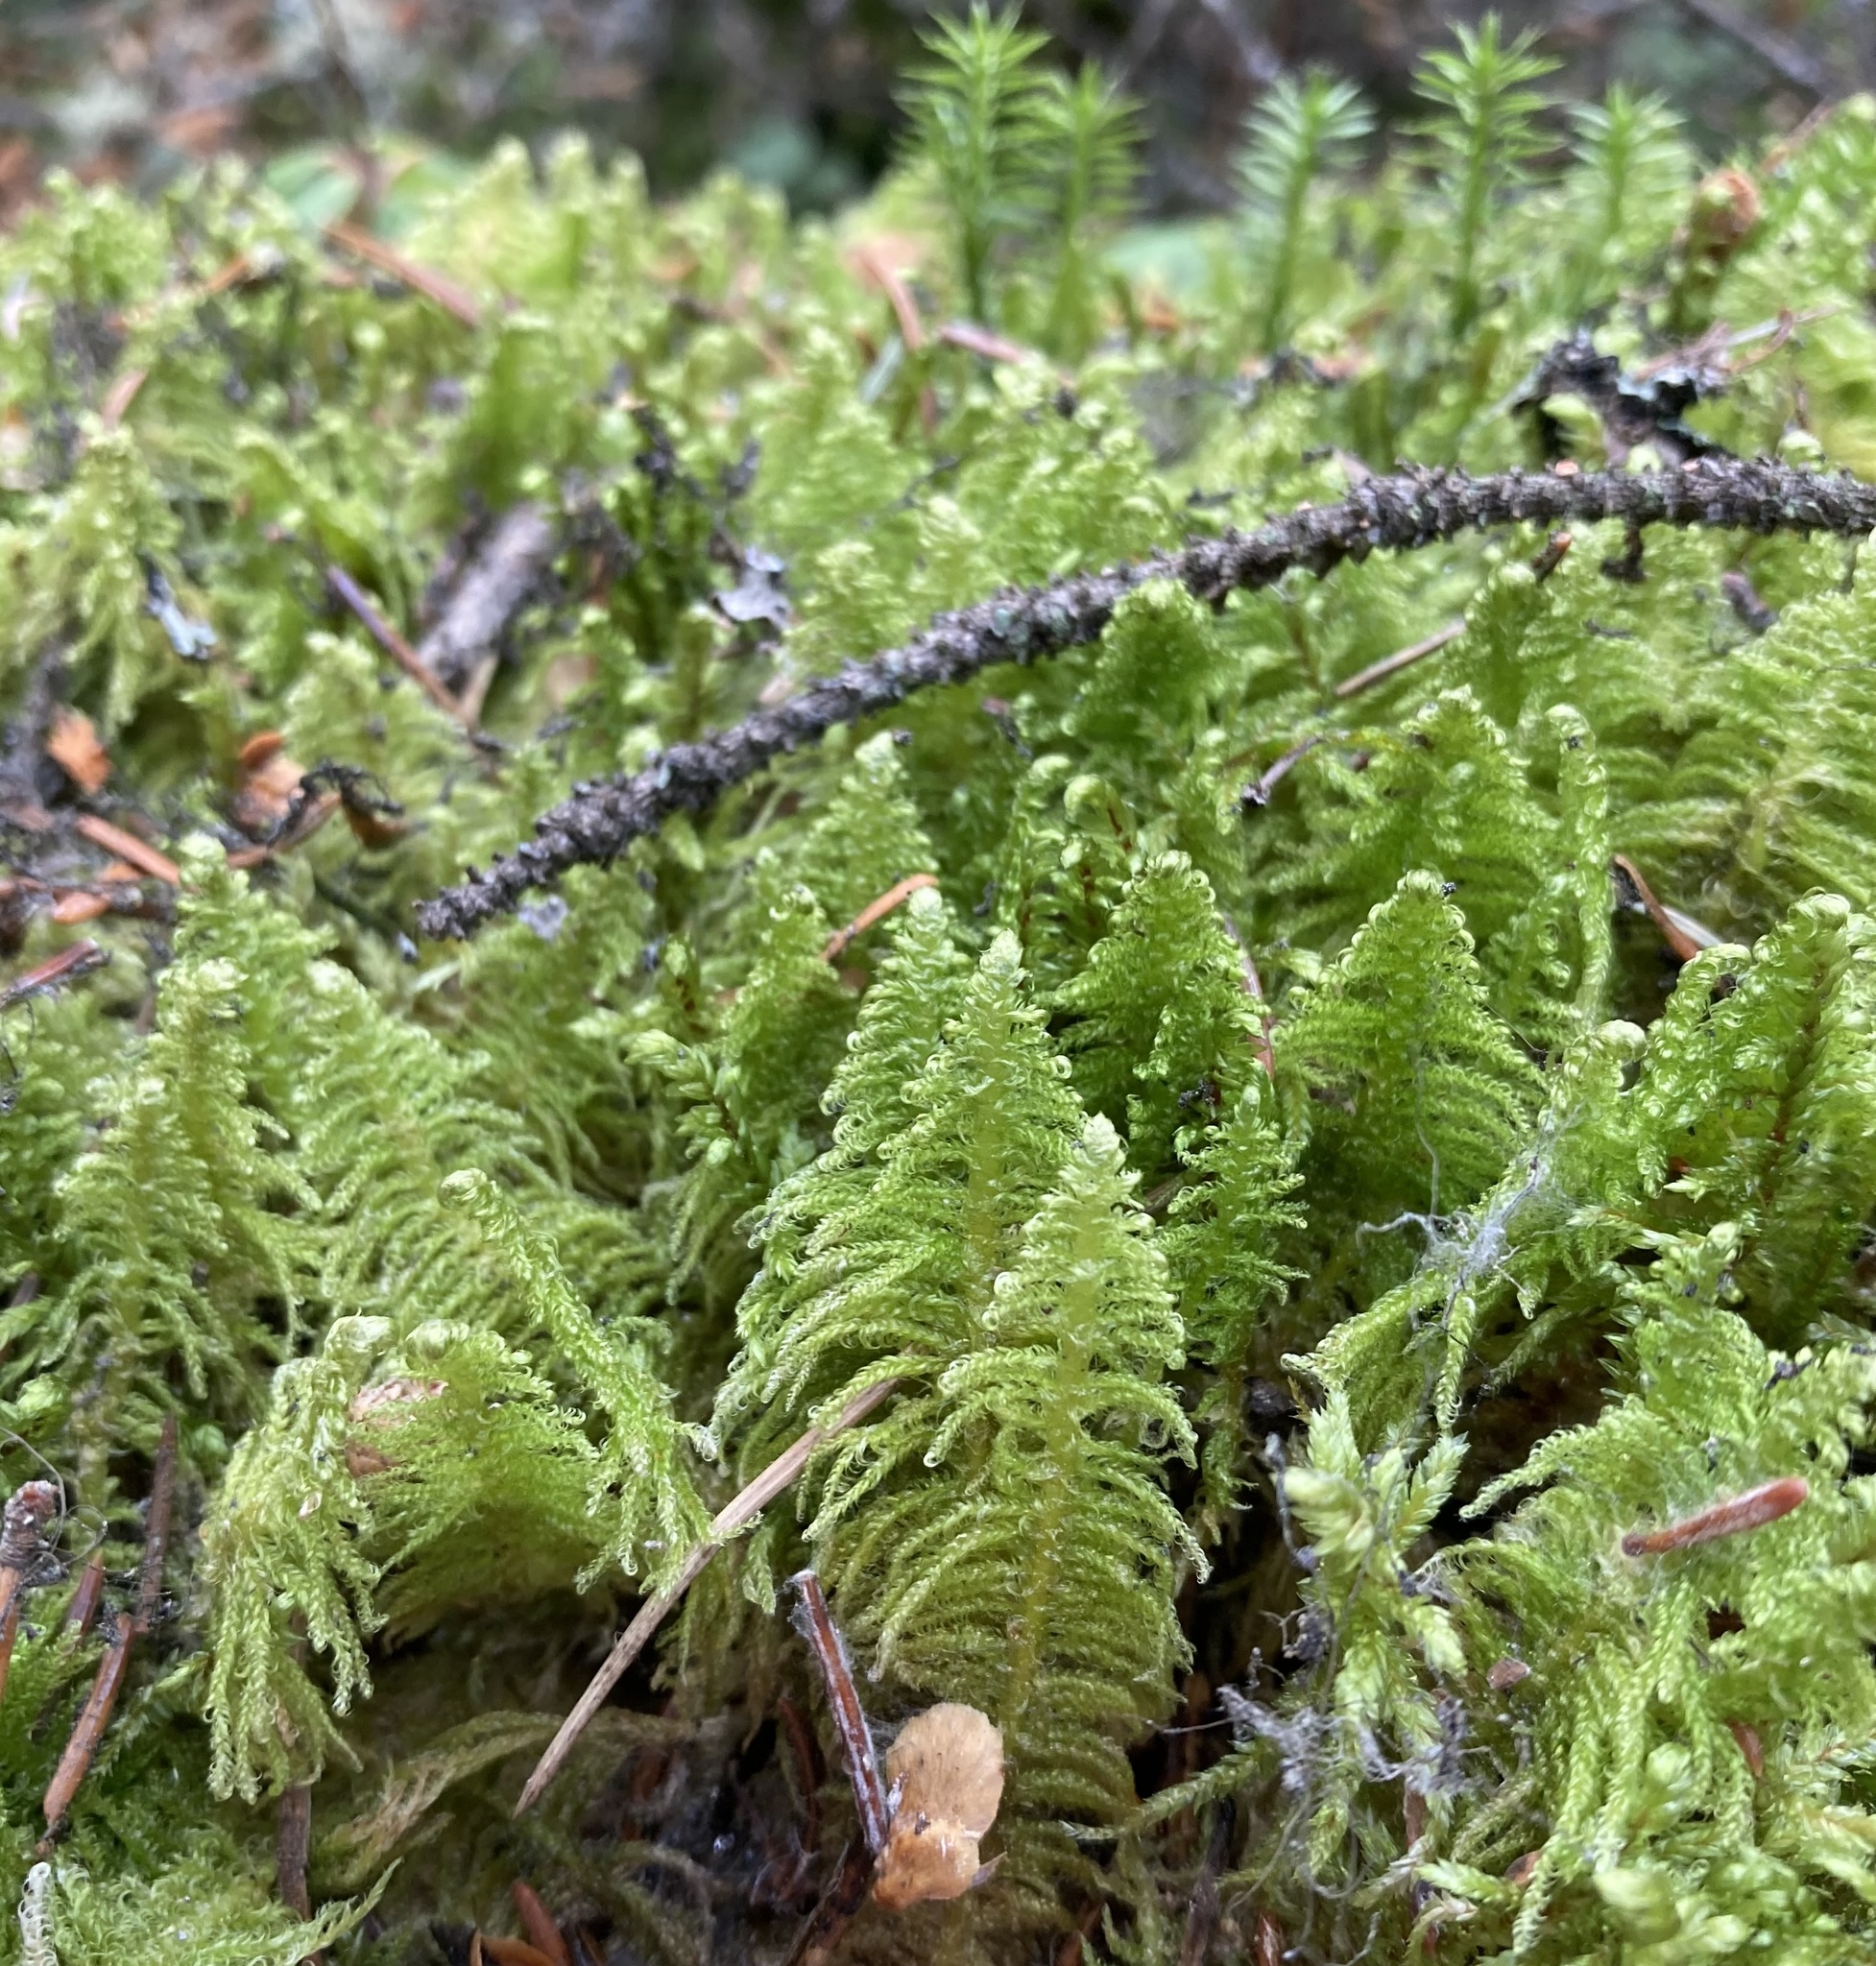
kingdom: Plantae
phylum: Bryophyta
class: Bryopsida
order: Hypnales
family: Pylaisiaceae
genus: Ptilium
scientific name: Ptilium crista-castrensis
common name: Knight's plume moss
